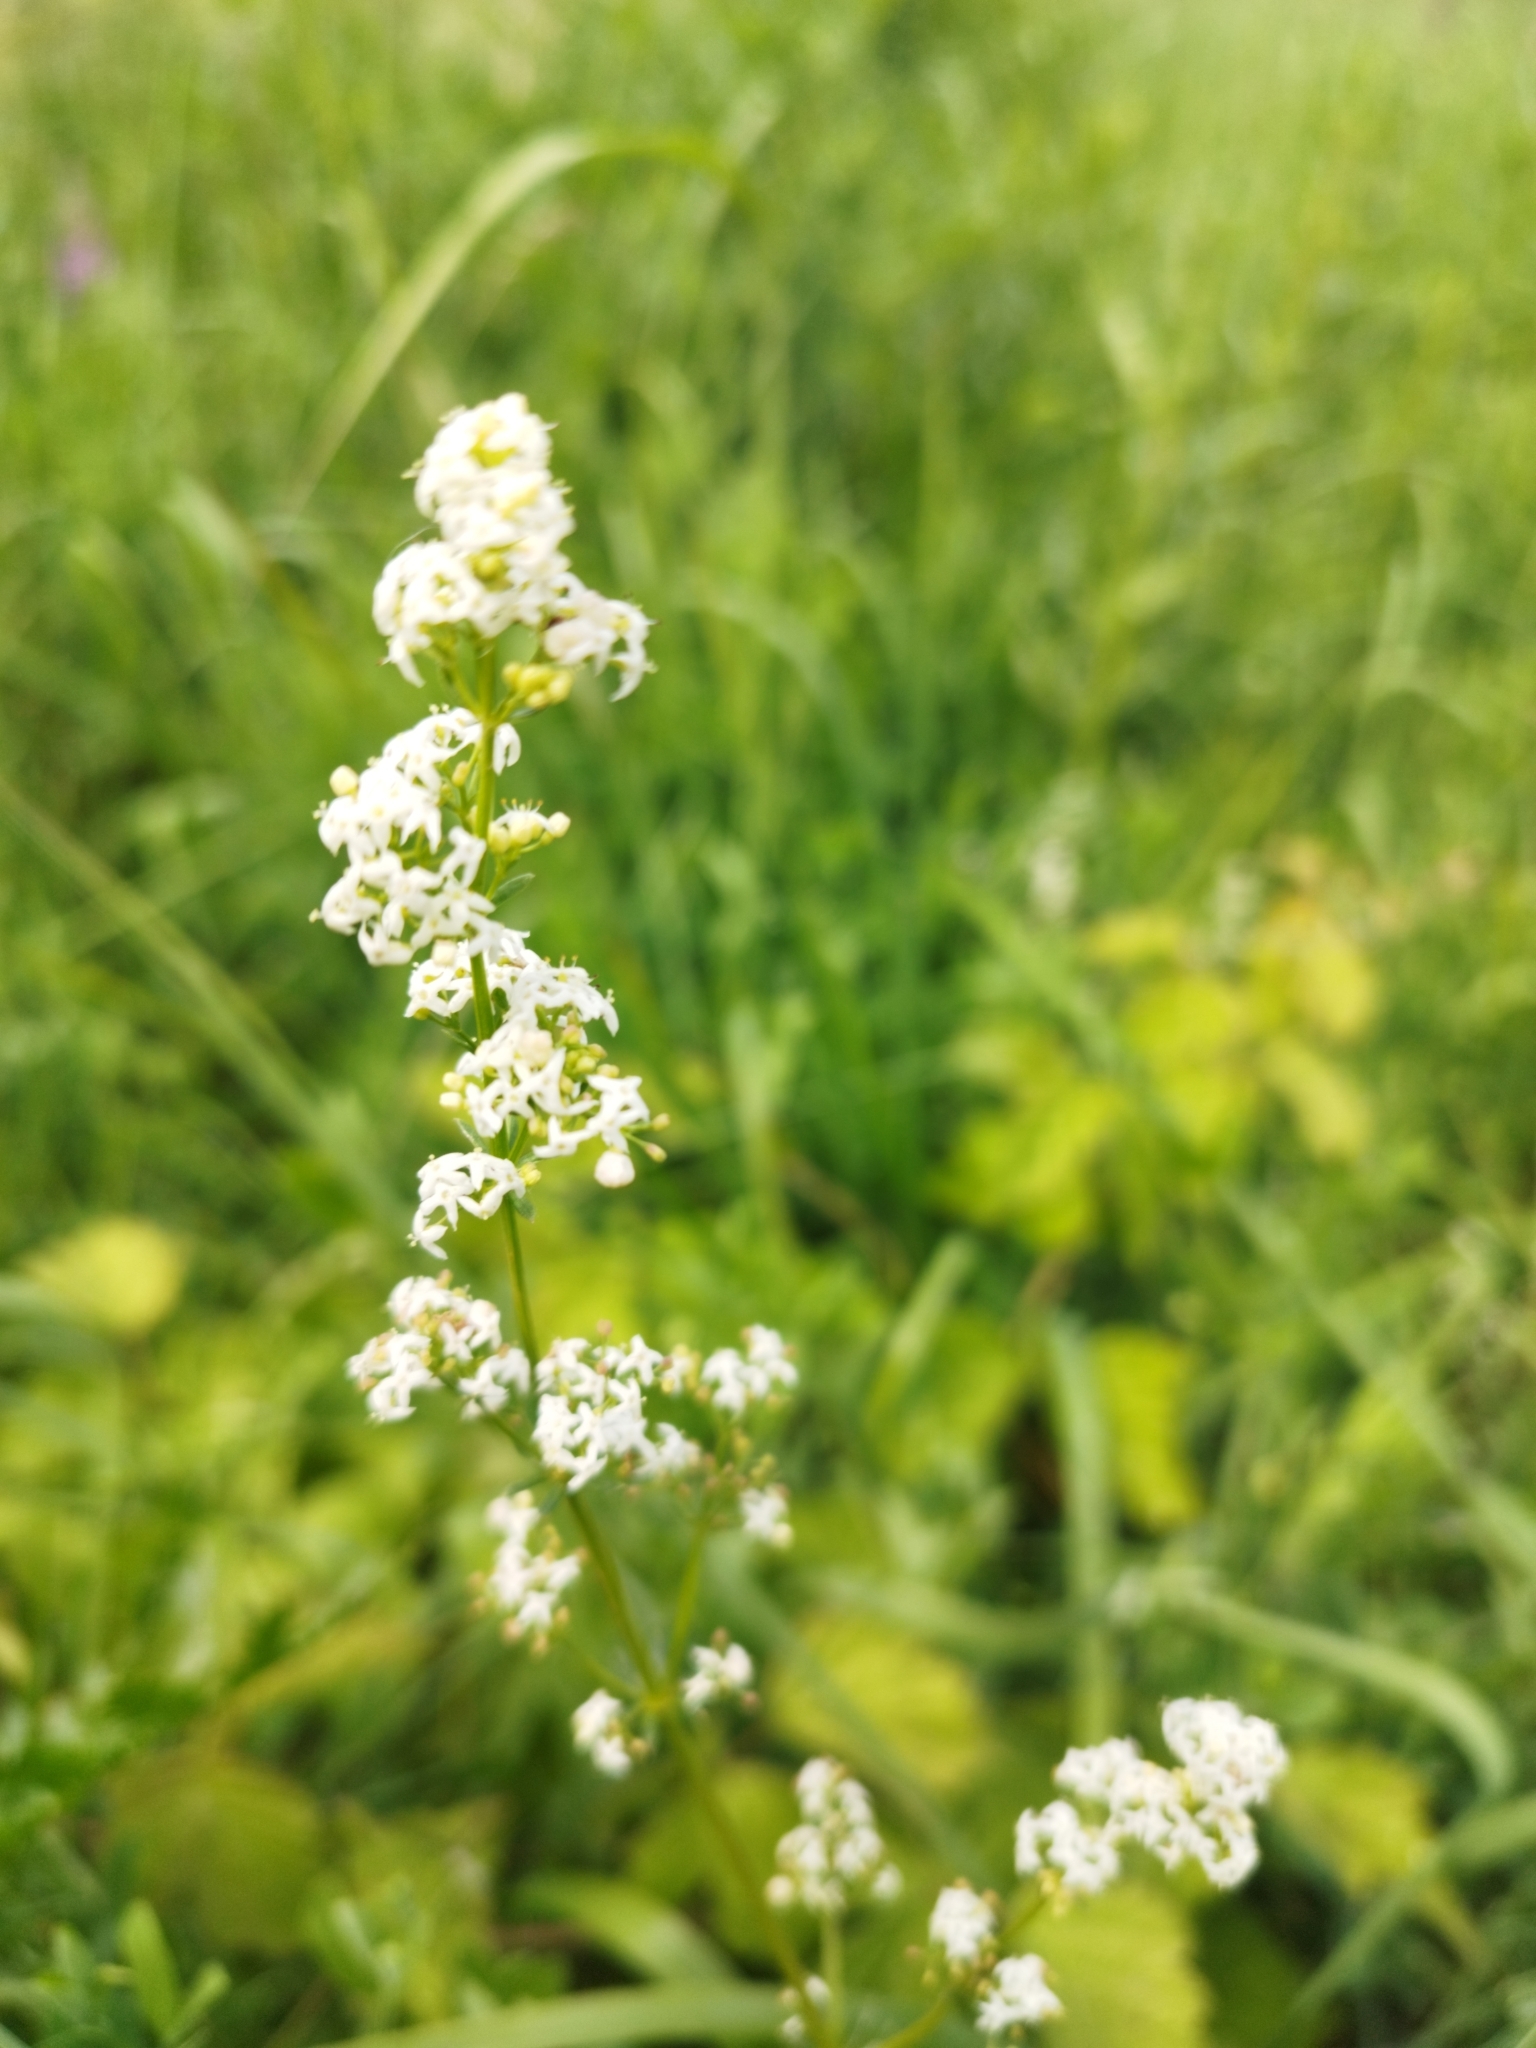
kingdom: Plantae
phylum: Tracheophyta
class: Magnoliopsida
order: Gentianales
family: Rubiaceae
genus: Galium
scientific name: Galium mollugo
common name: Hedge bedstraw
